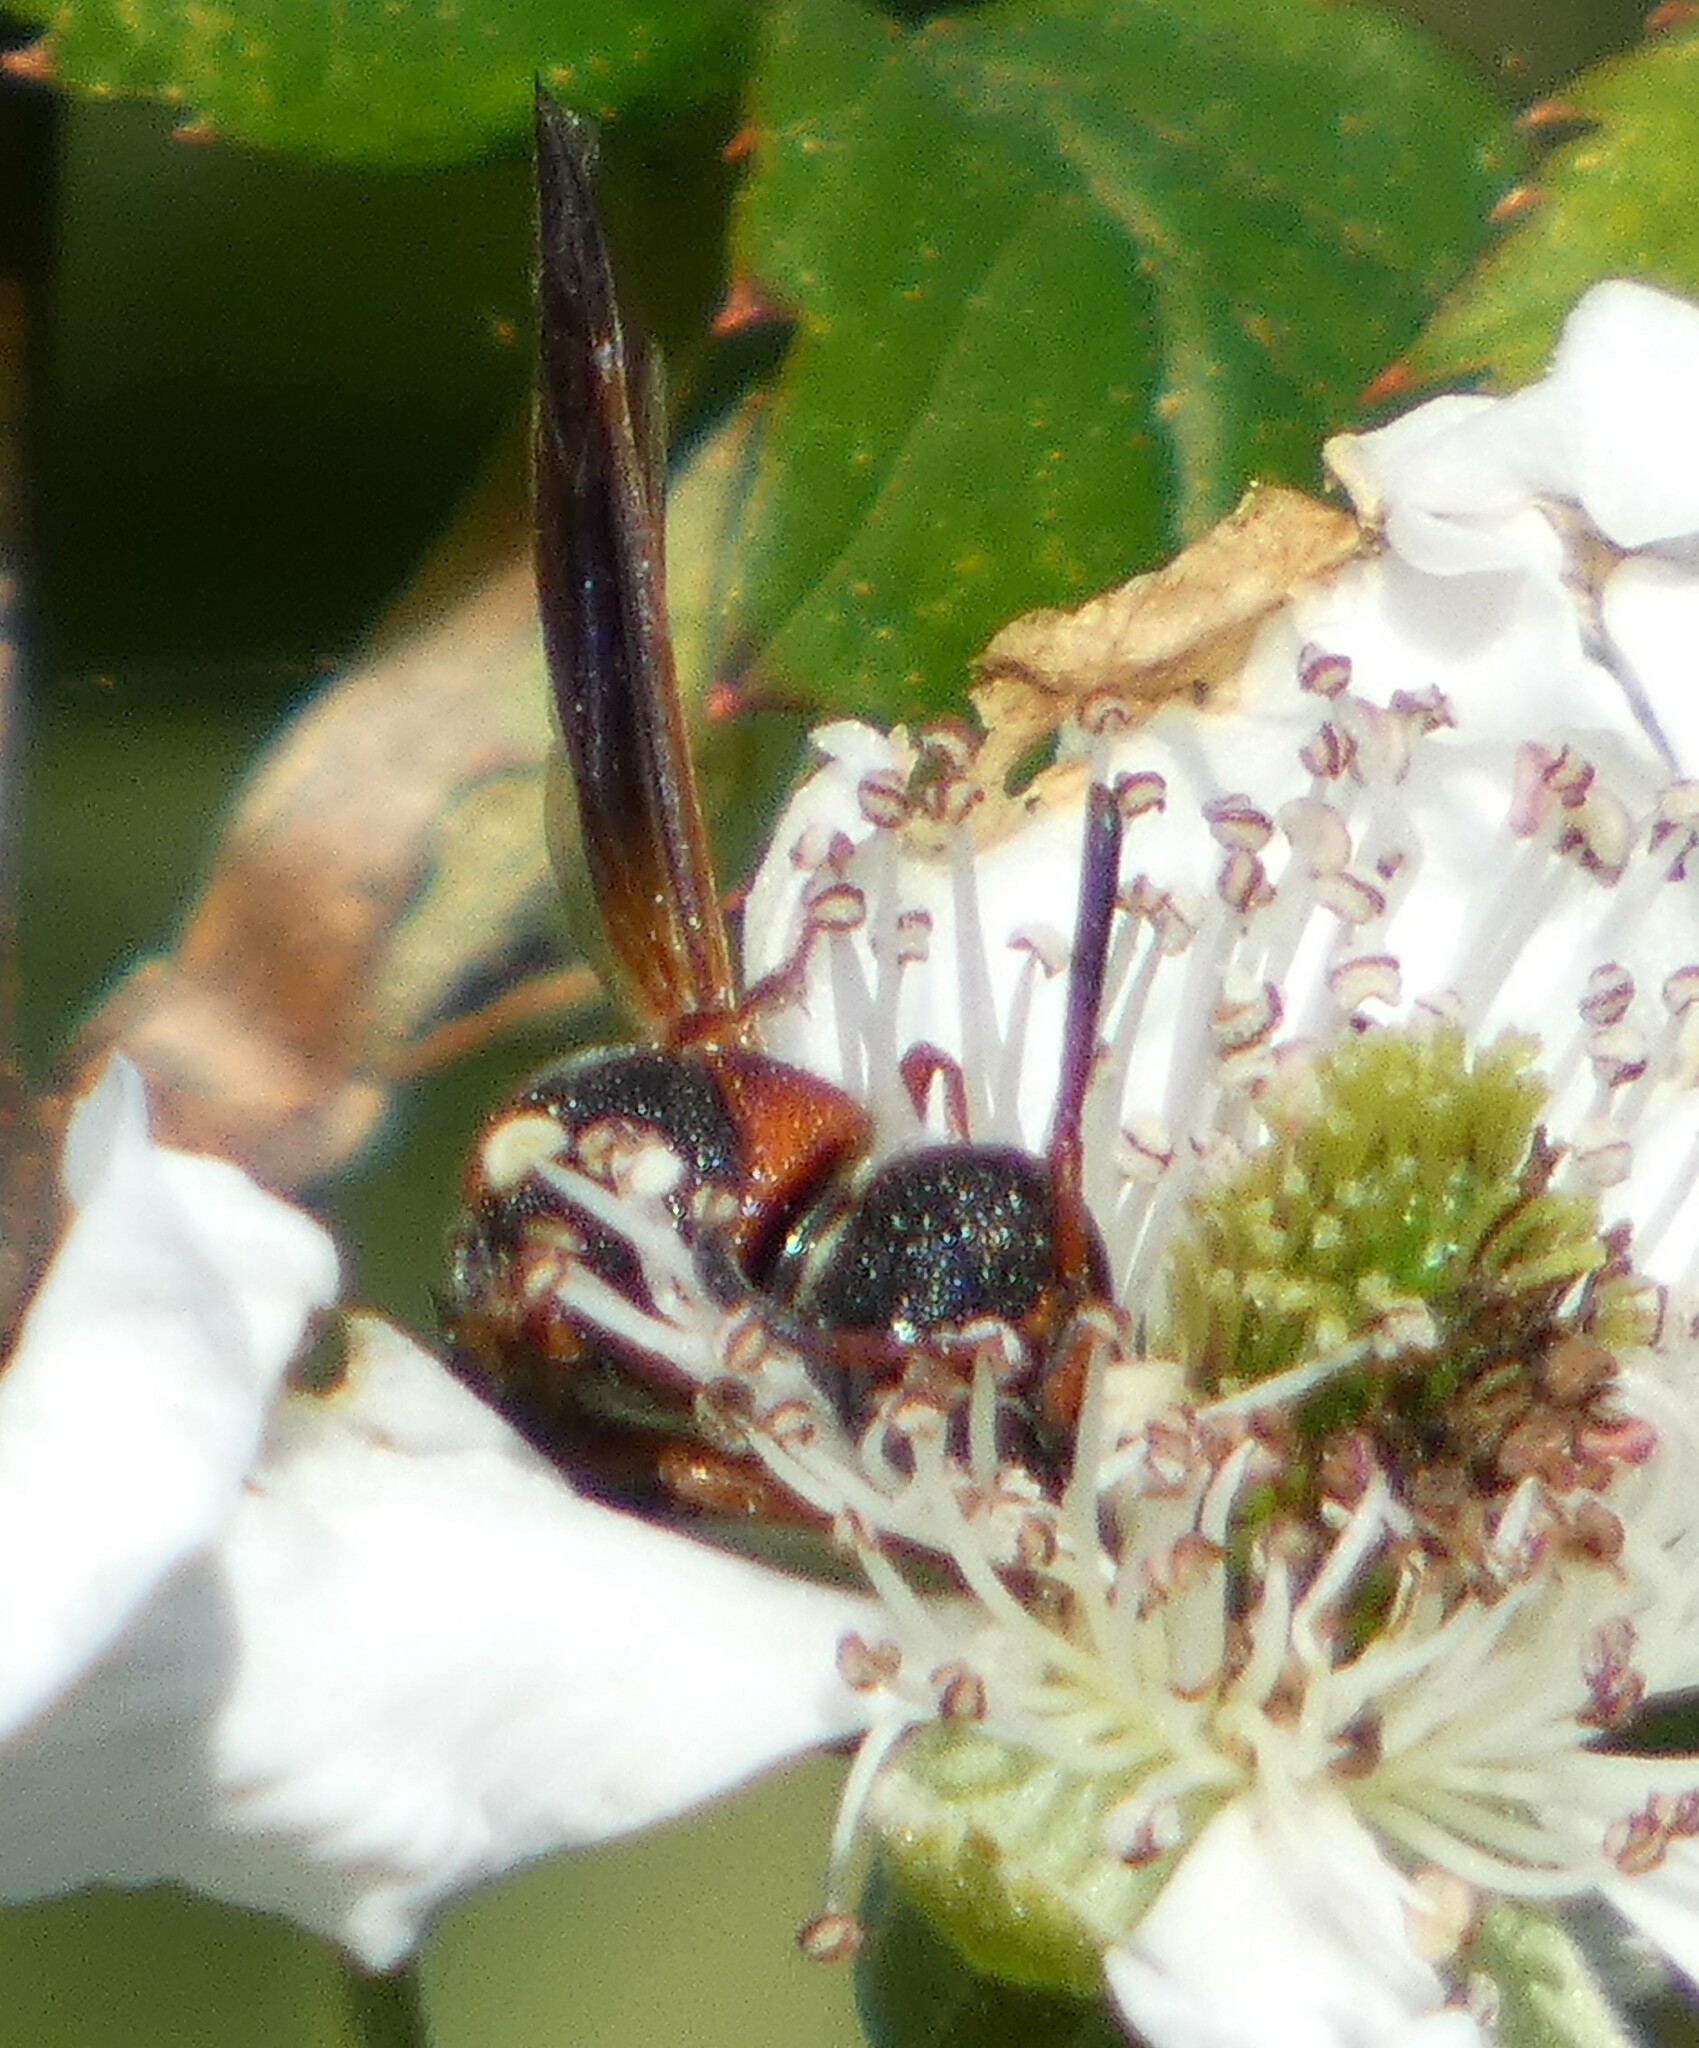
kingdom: Animalia
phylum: Arthropoda
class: Insecta
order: Hymenoptera
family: Eumenidae
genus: Pachodynerus
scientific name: Pachodynerus erynnis
